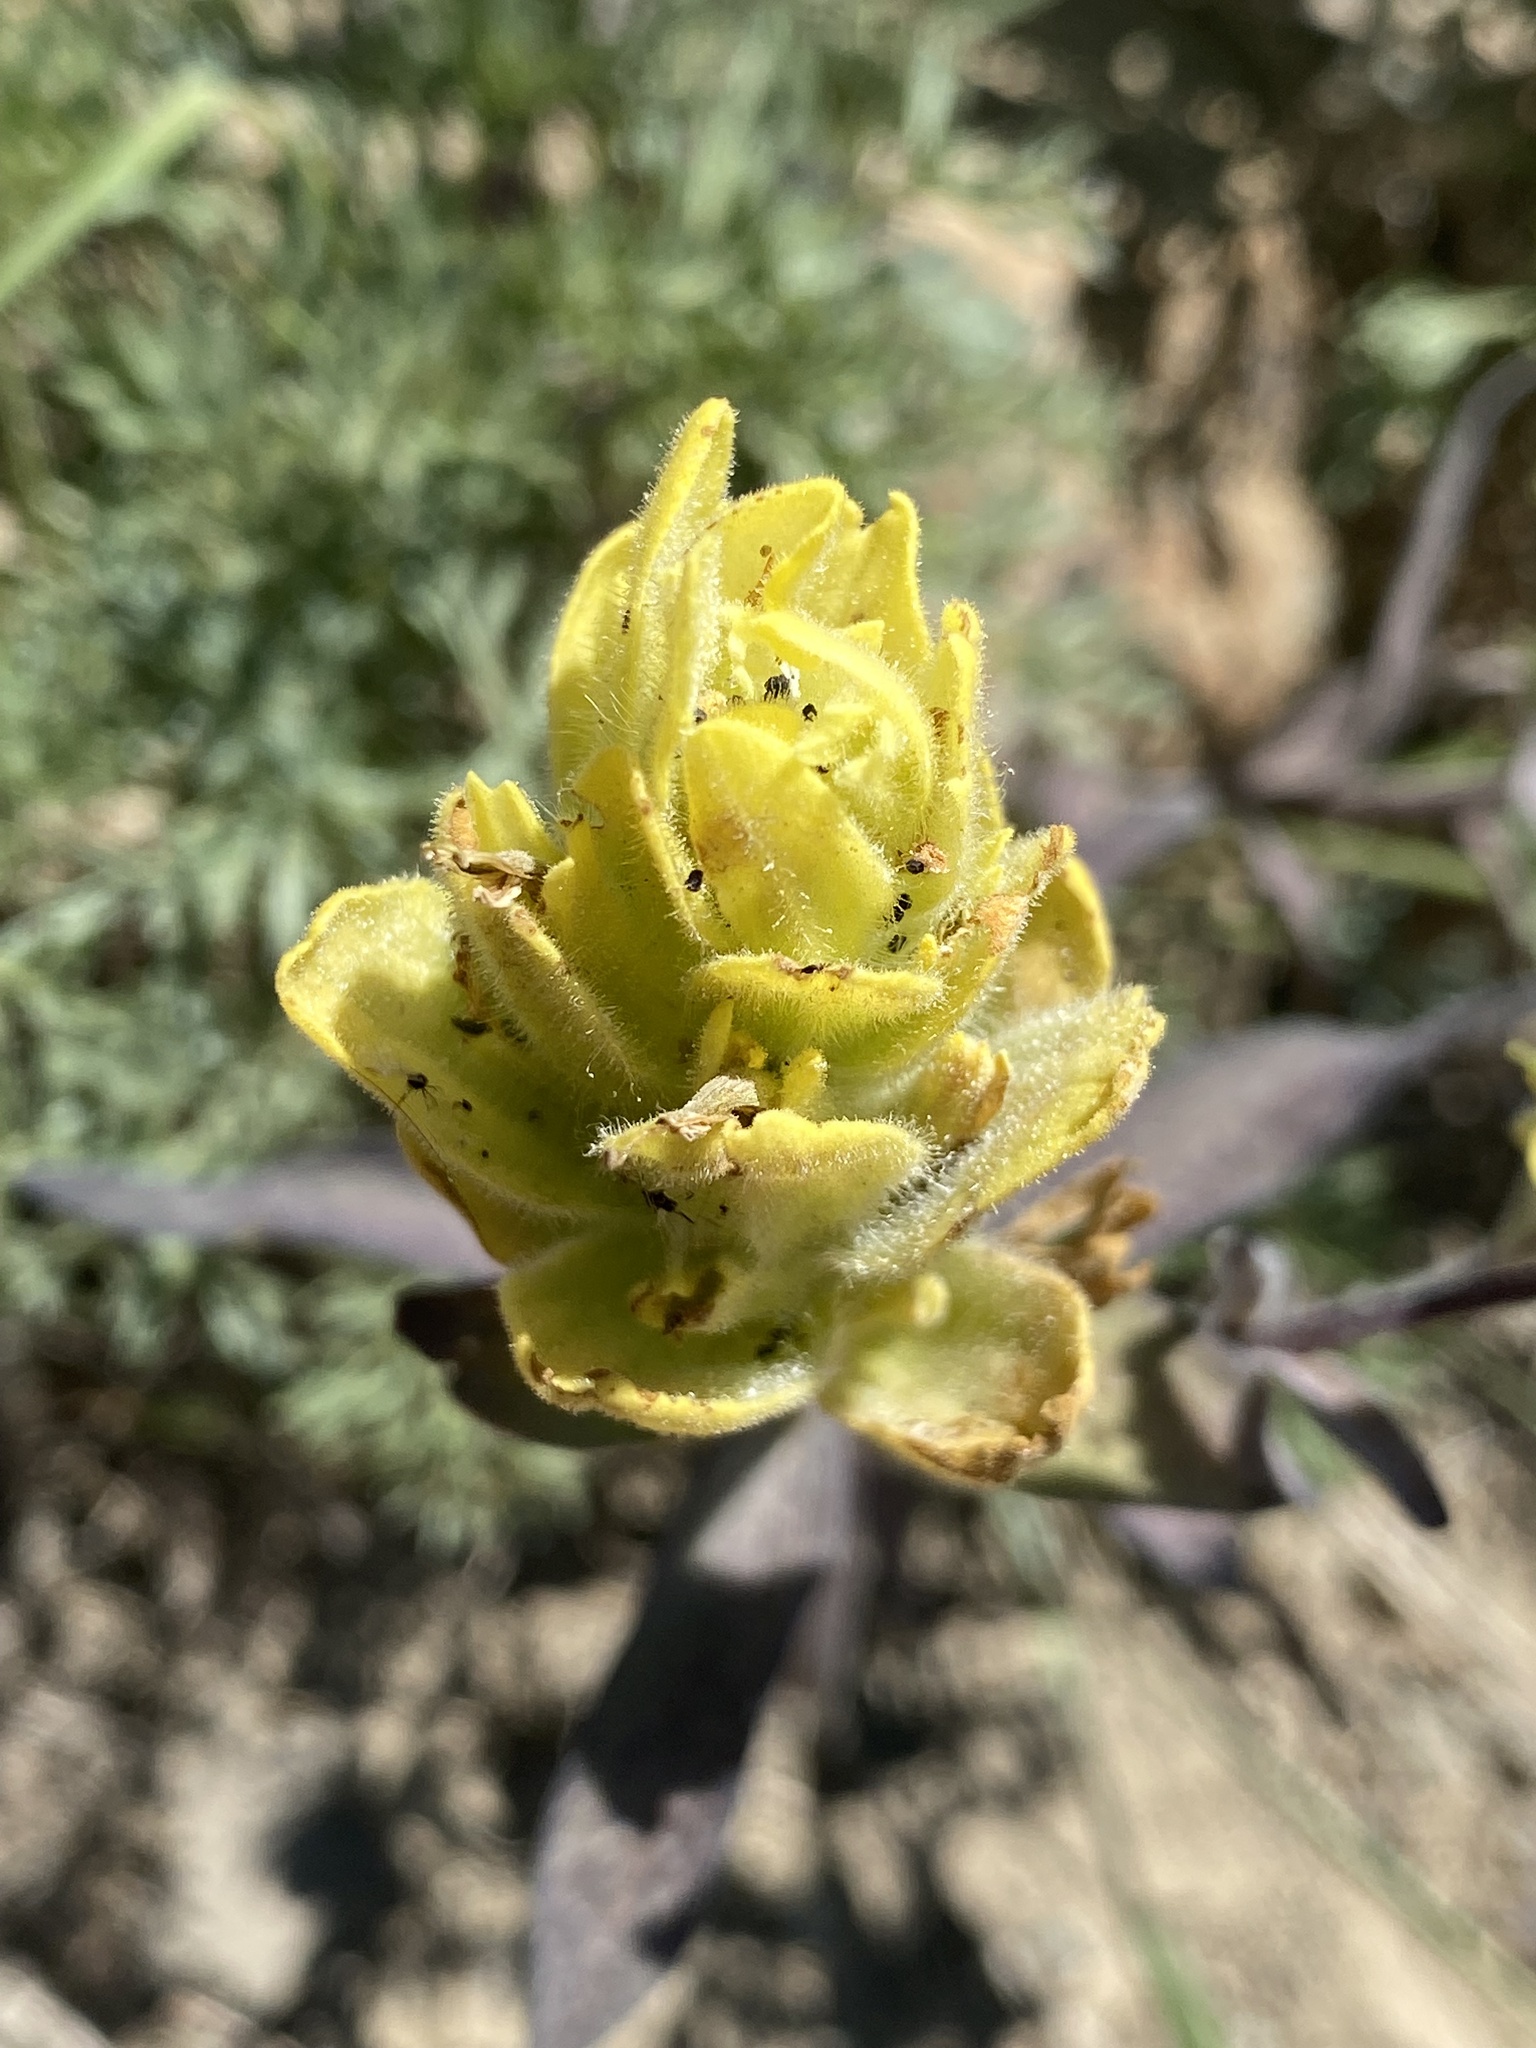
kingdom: Plantae
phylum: Tracheophyta
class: Magnoliopsida
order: Lamiales
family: Orobanchaceae
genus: Castilleja
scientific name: Castilleja elmeri
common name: Elmer's paintbrush
